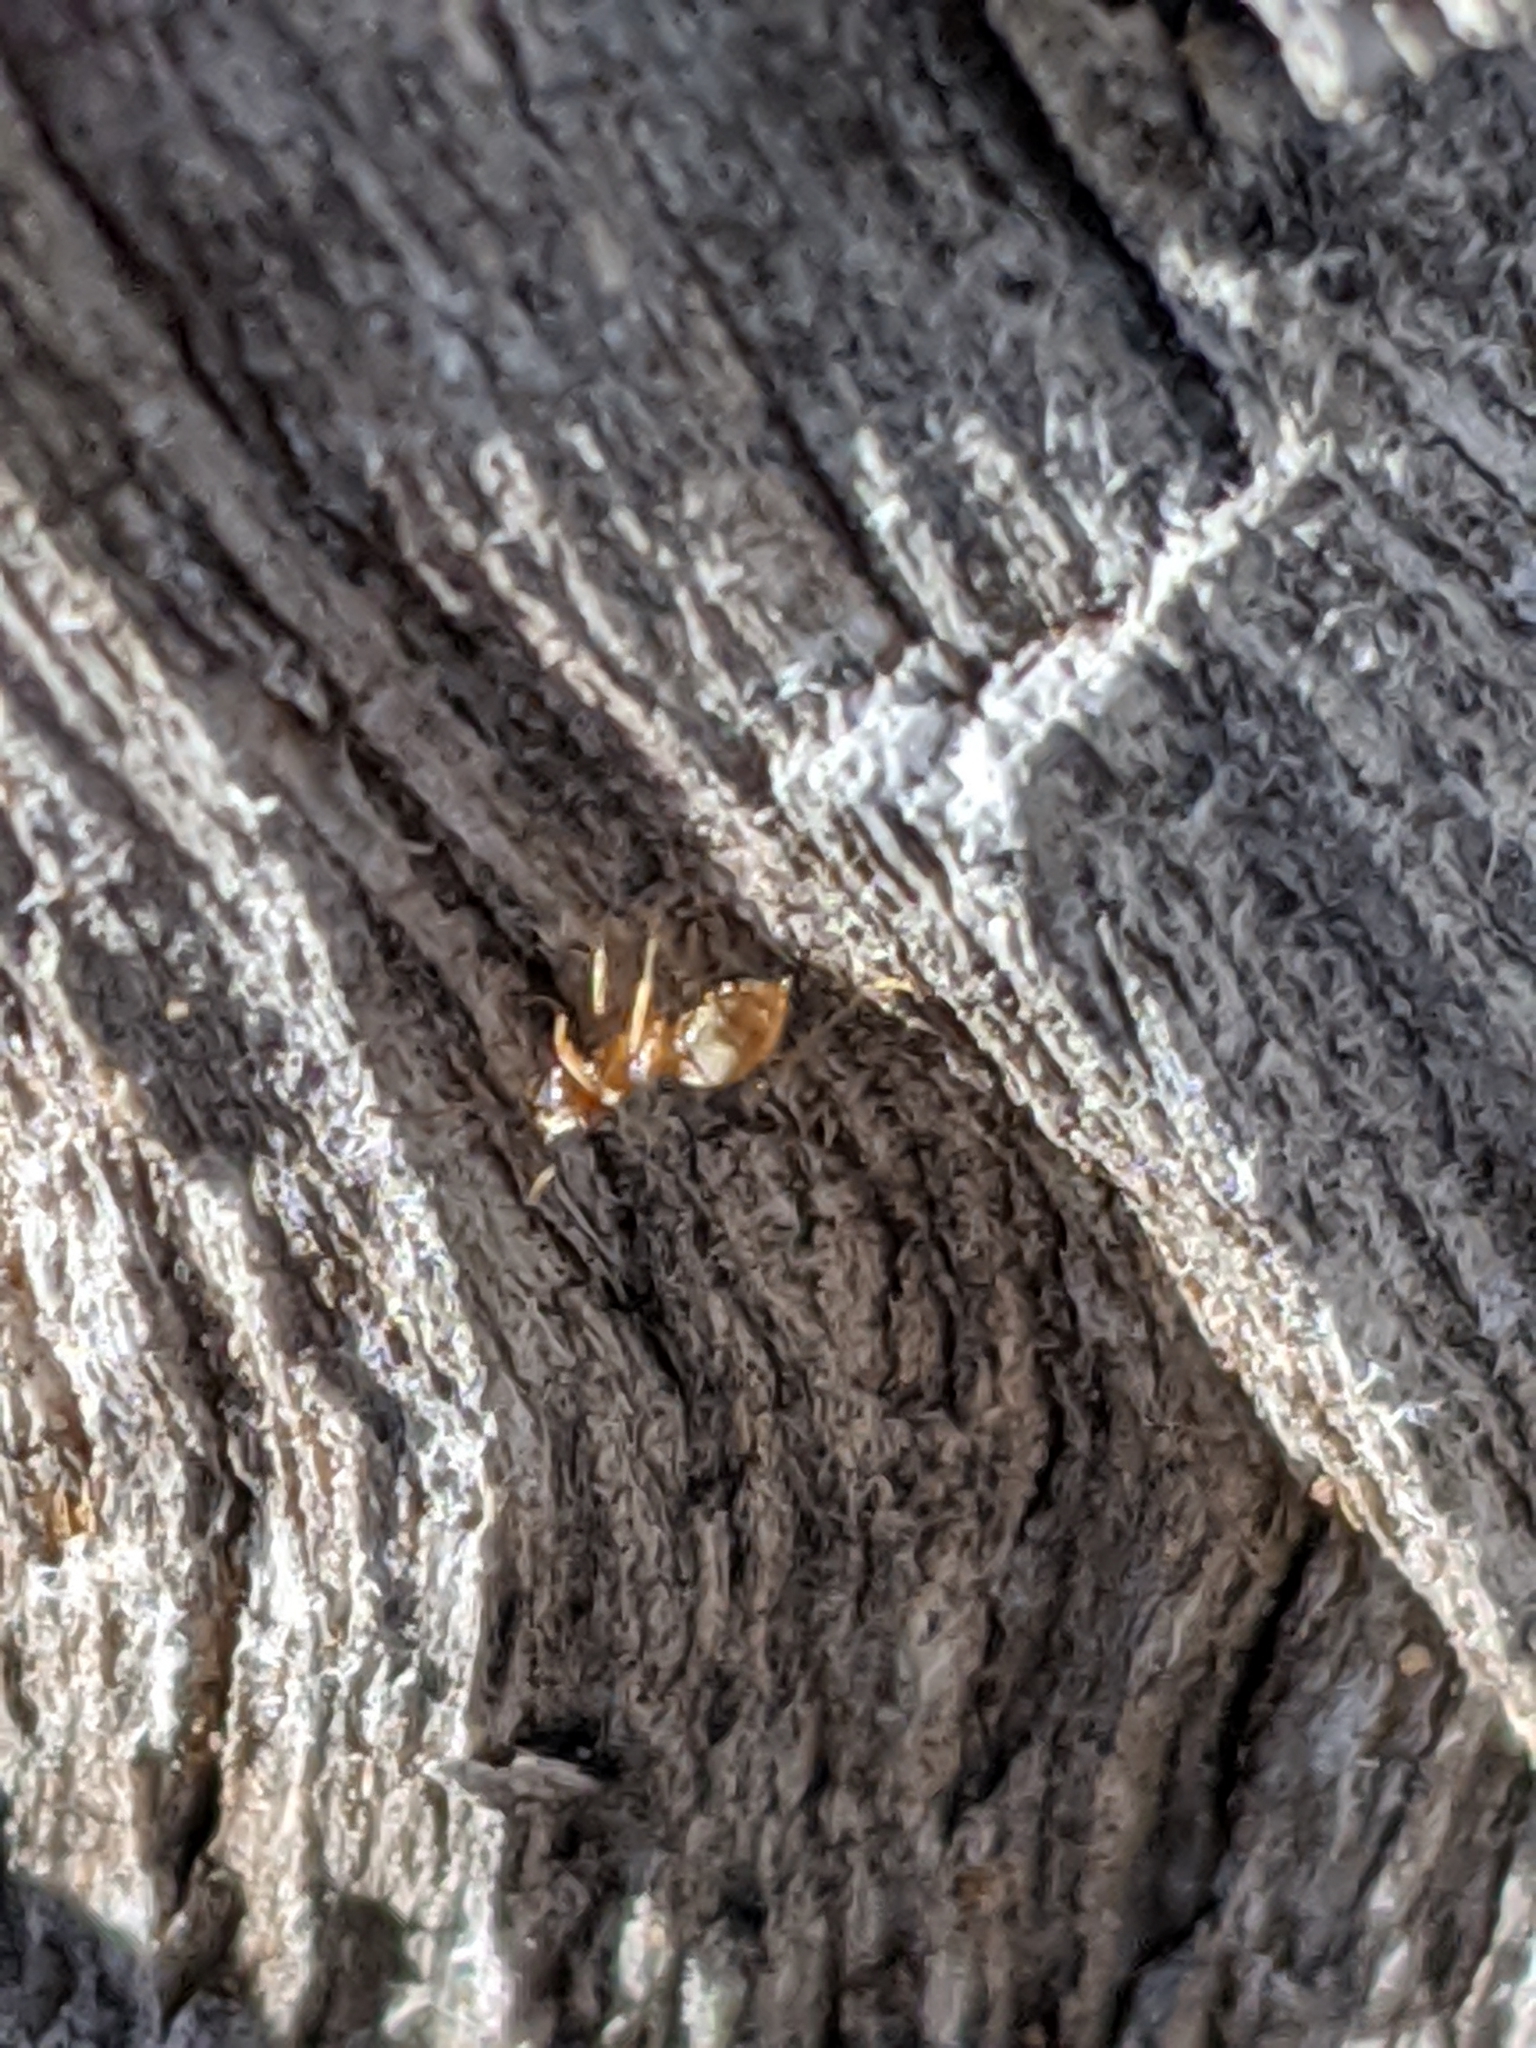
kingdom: Animalia
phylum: Arthropoda
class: Insecta
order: Hymenoptera
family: Formicidae
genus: Lasius
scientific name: Lasius
